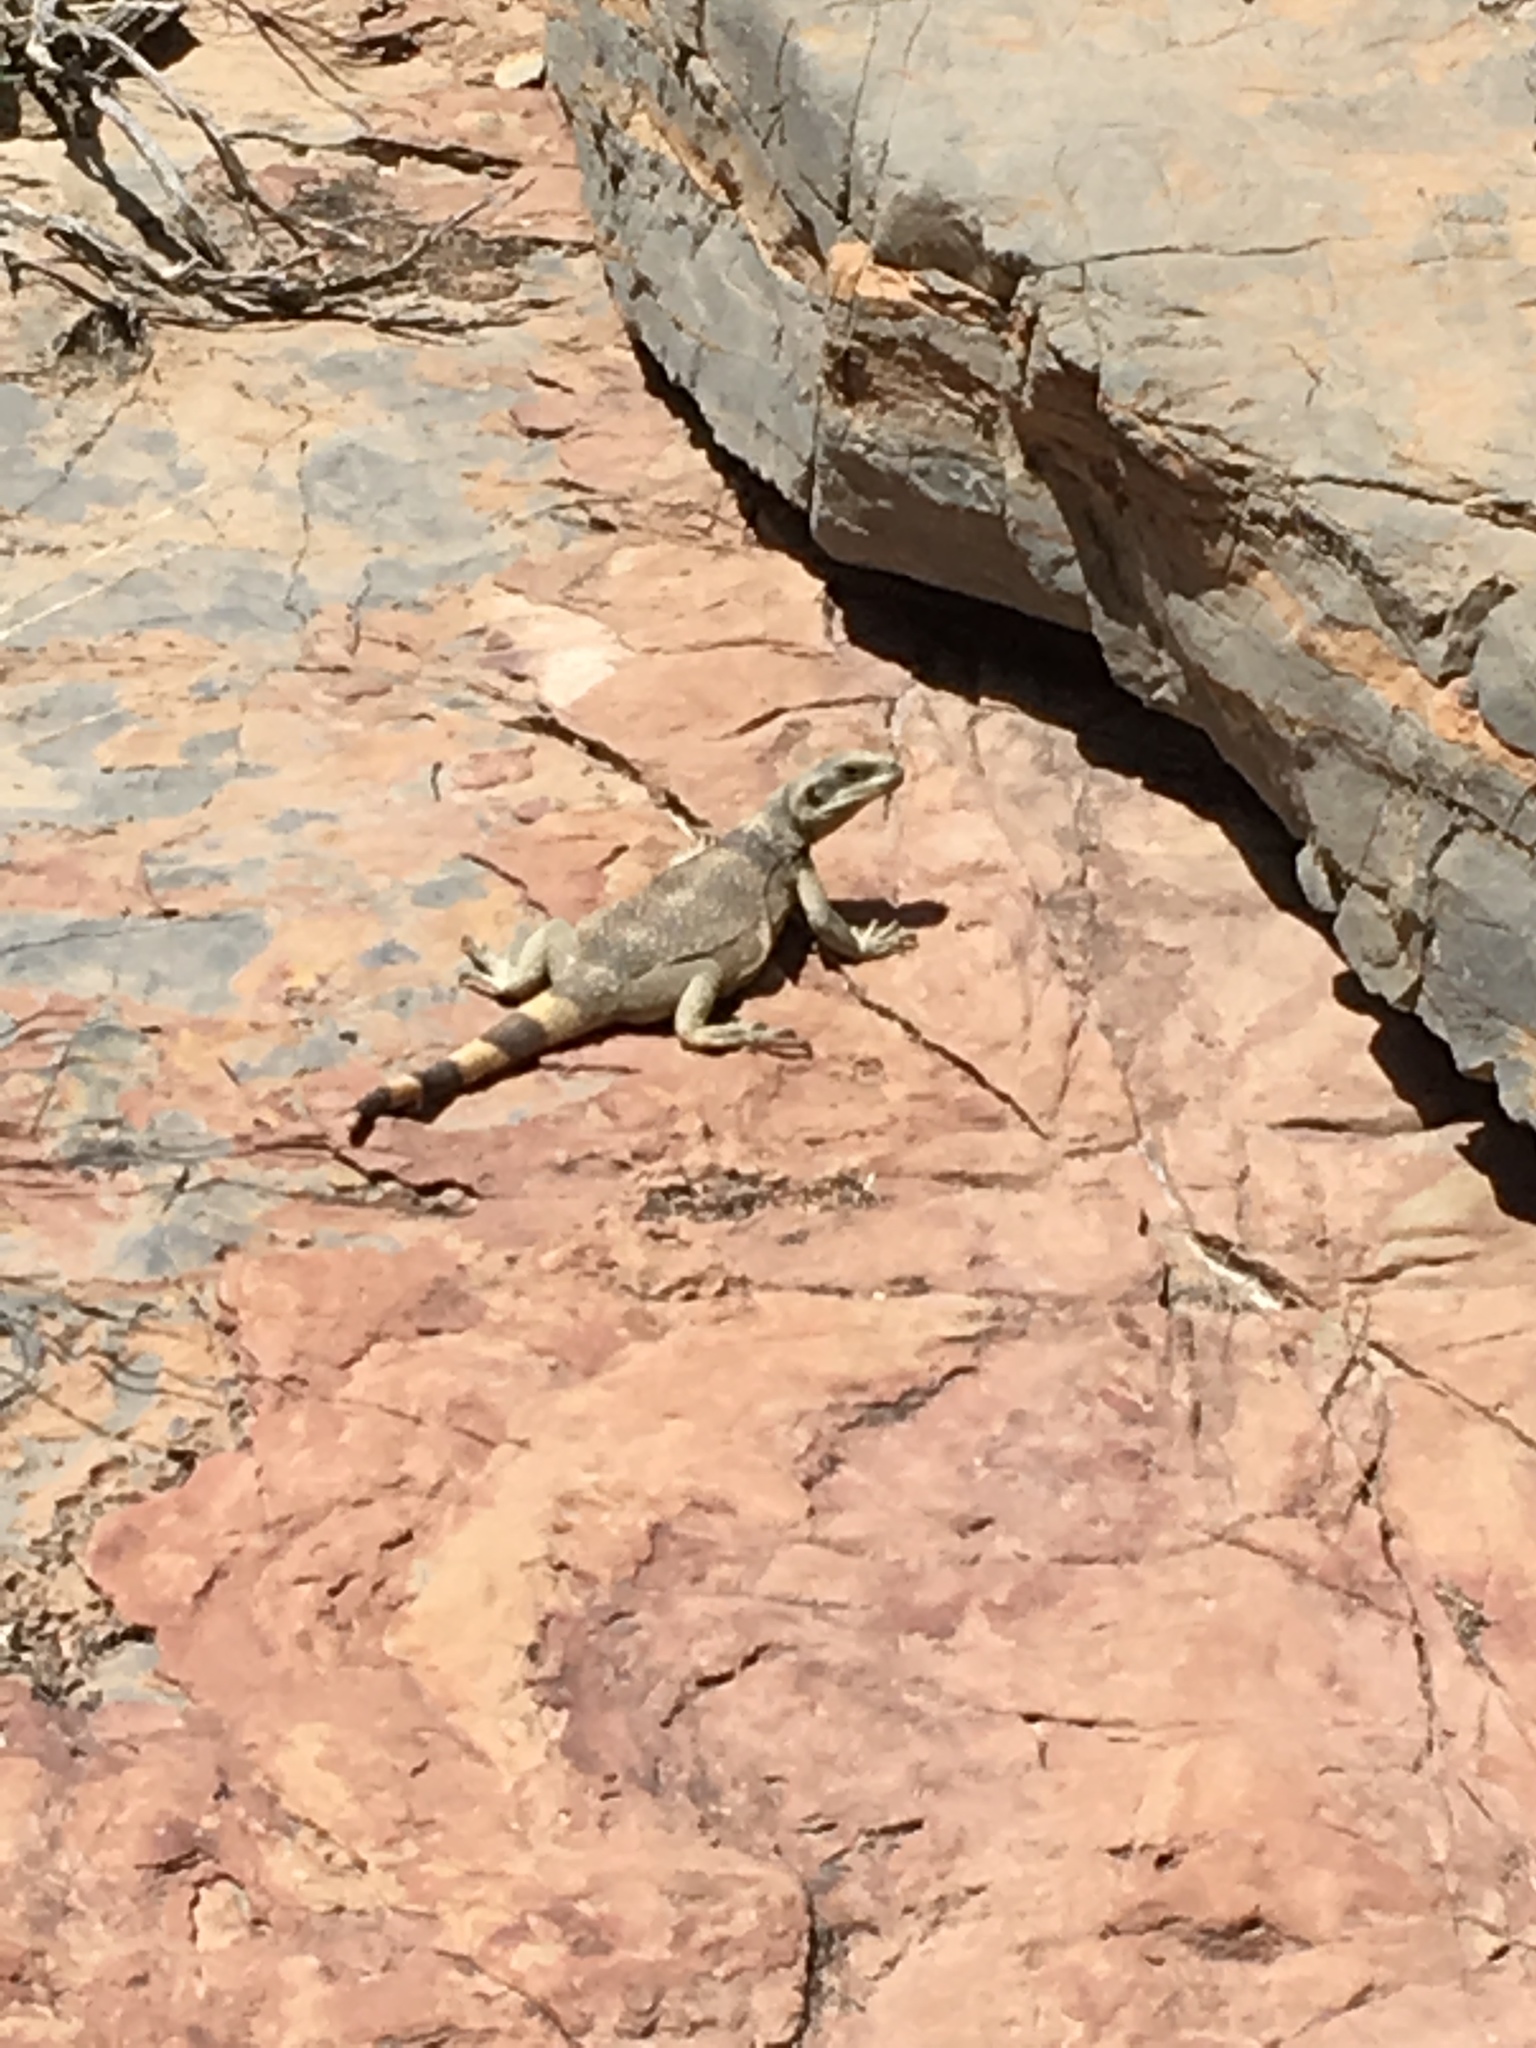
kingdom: Animalia
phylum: Chordata
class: Squamata
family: Iguanidae
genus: Sauromalus
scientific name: Sauromalus ater
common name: Northern chuckwalla
